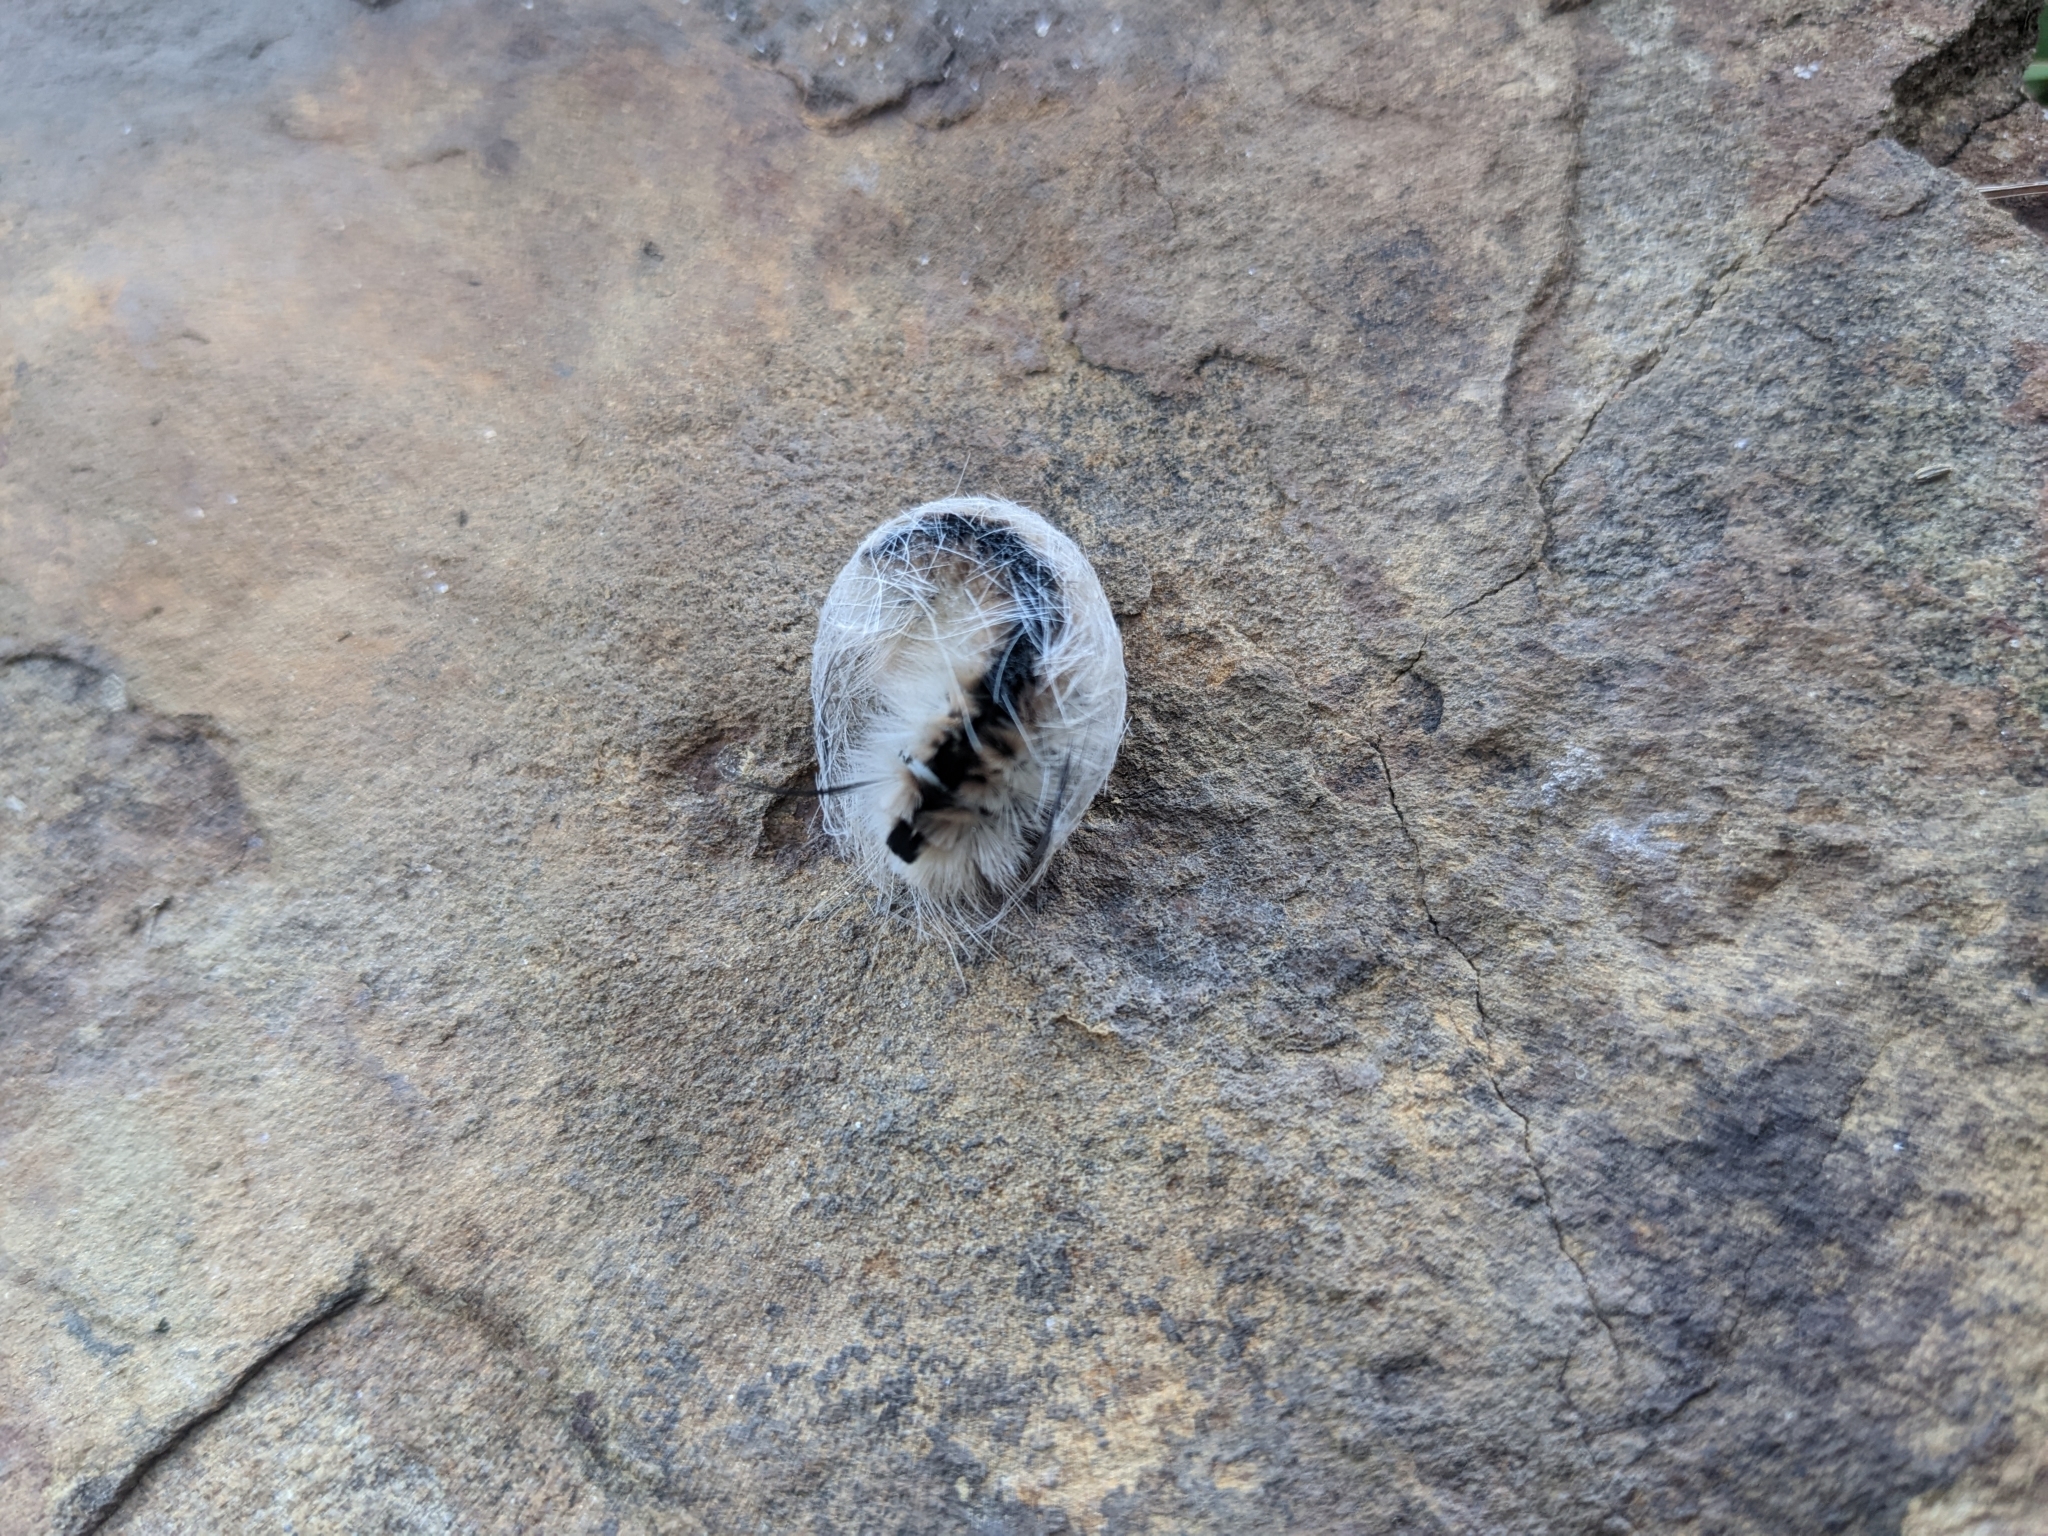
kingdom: Animalia
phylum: Arthropoda
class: Insecta
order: Lepidoptera
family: Erebidae
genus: Lophocampa
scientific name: Lophocampa caryae
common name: Hickory tussock moth
